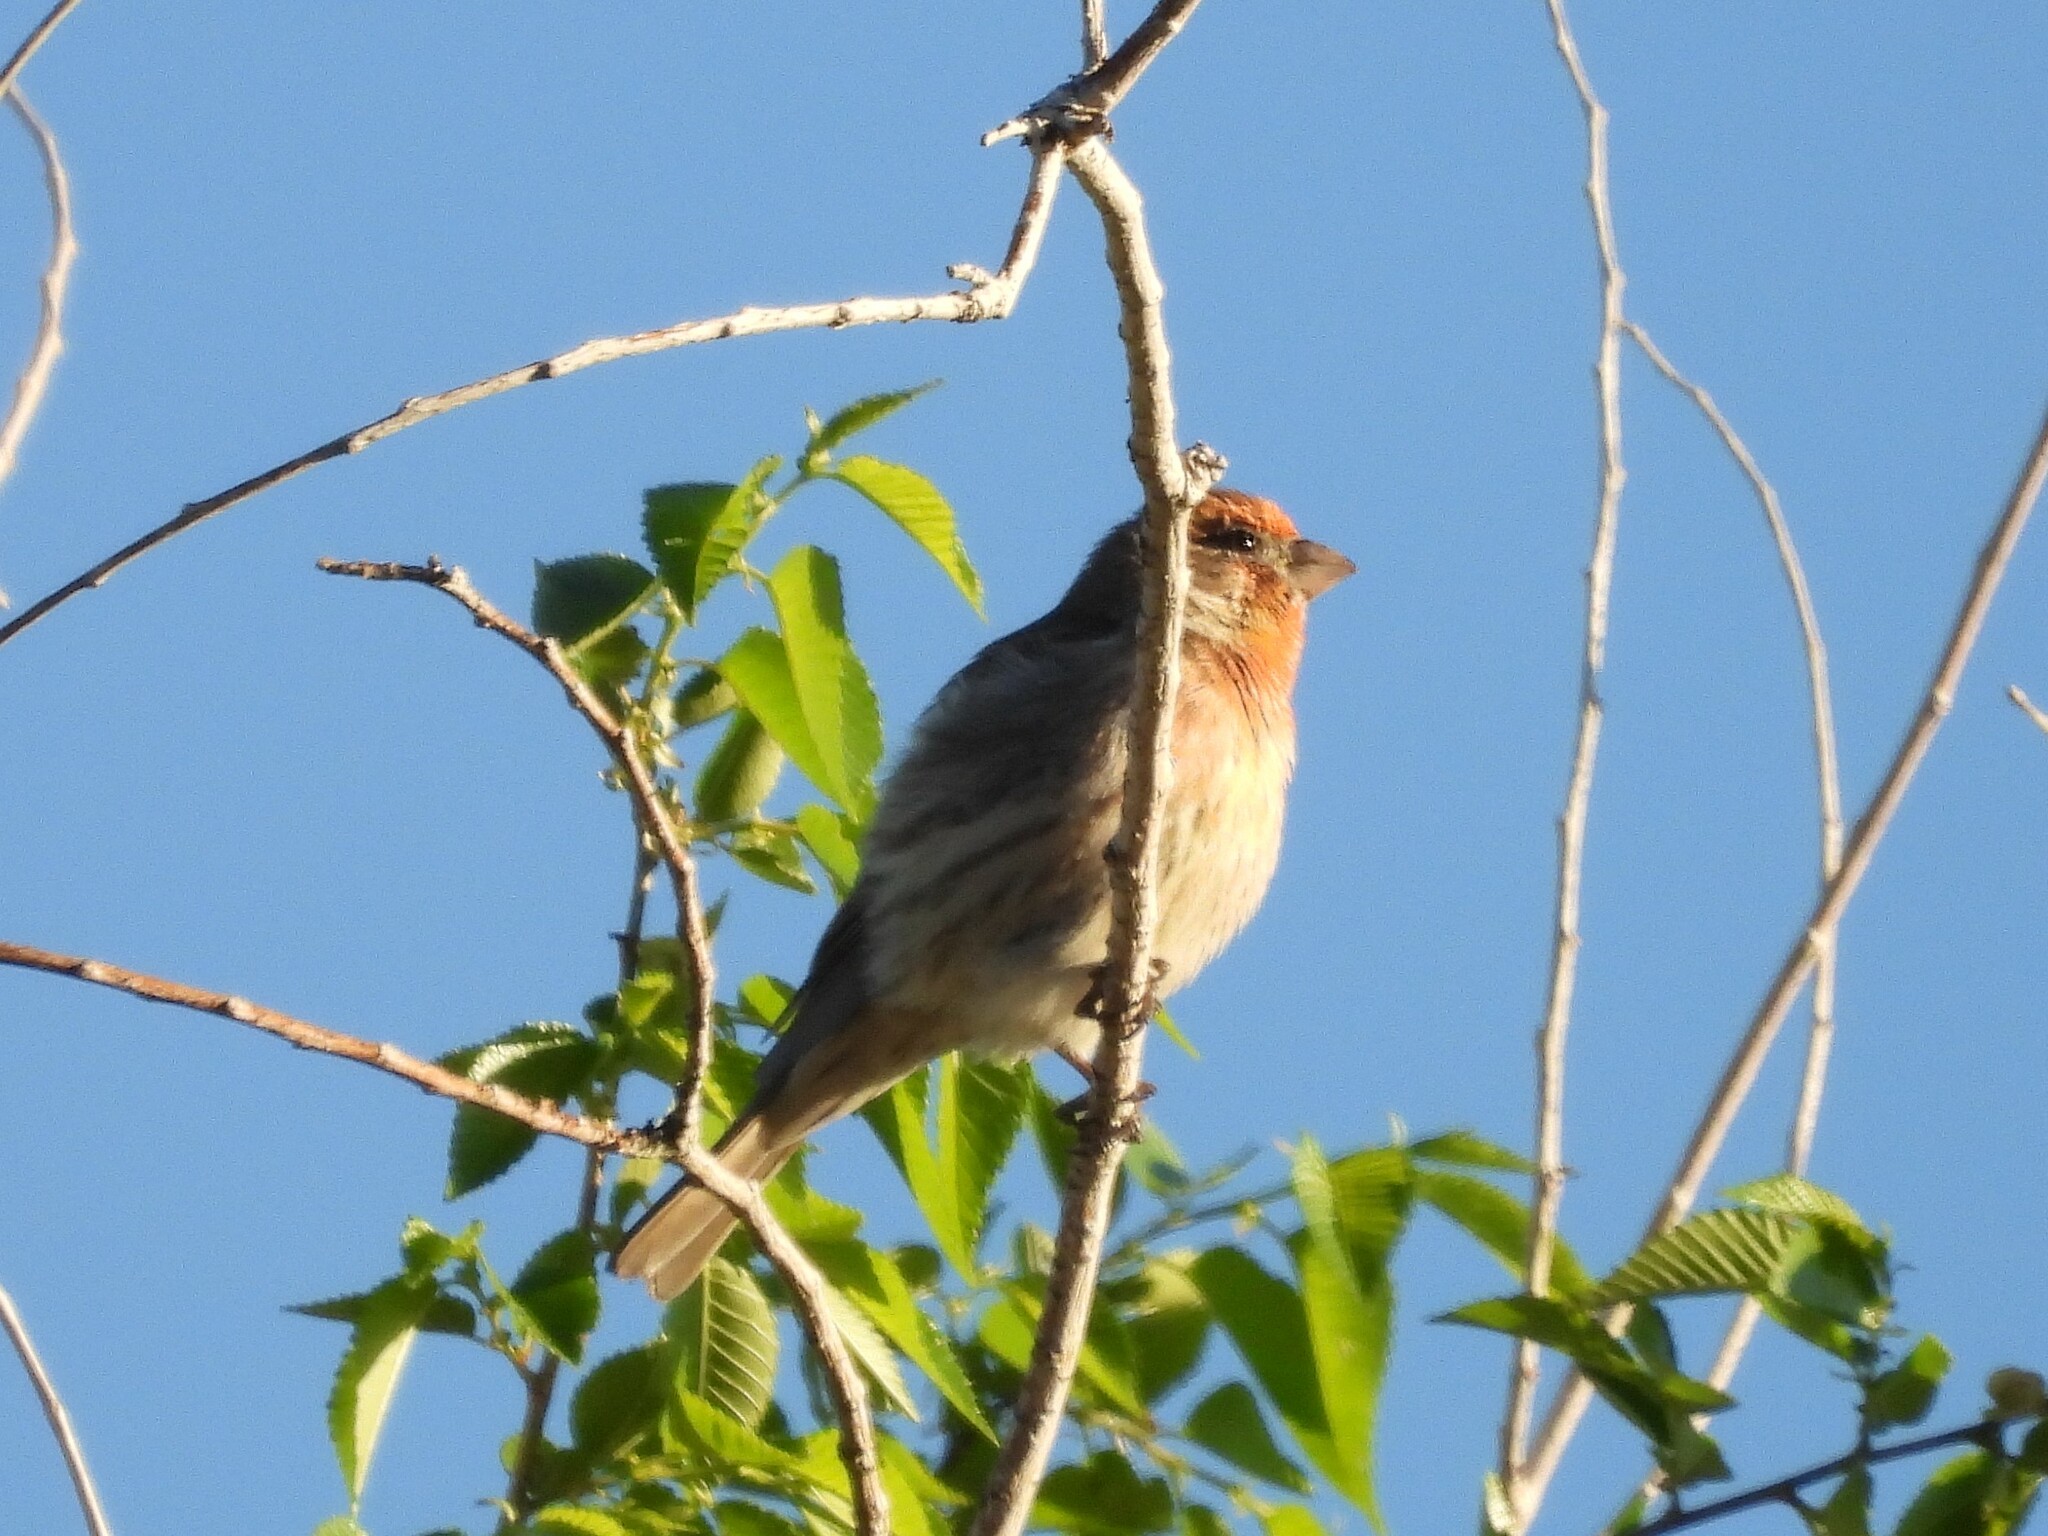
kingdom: Animalia
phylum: Chordata
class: Aves
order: Passeriformes
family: Fringillidae
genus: Haemorhous
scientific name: Haemorhous mexicanus
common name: House finch
